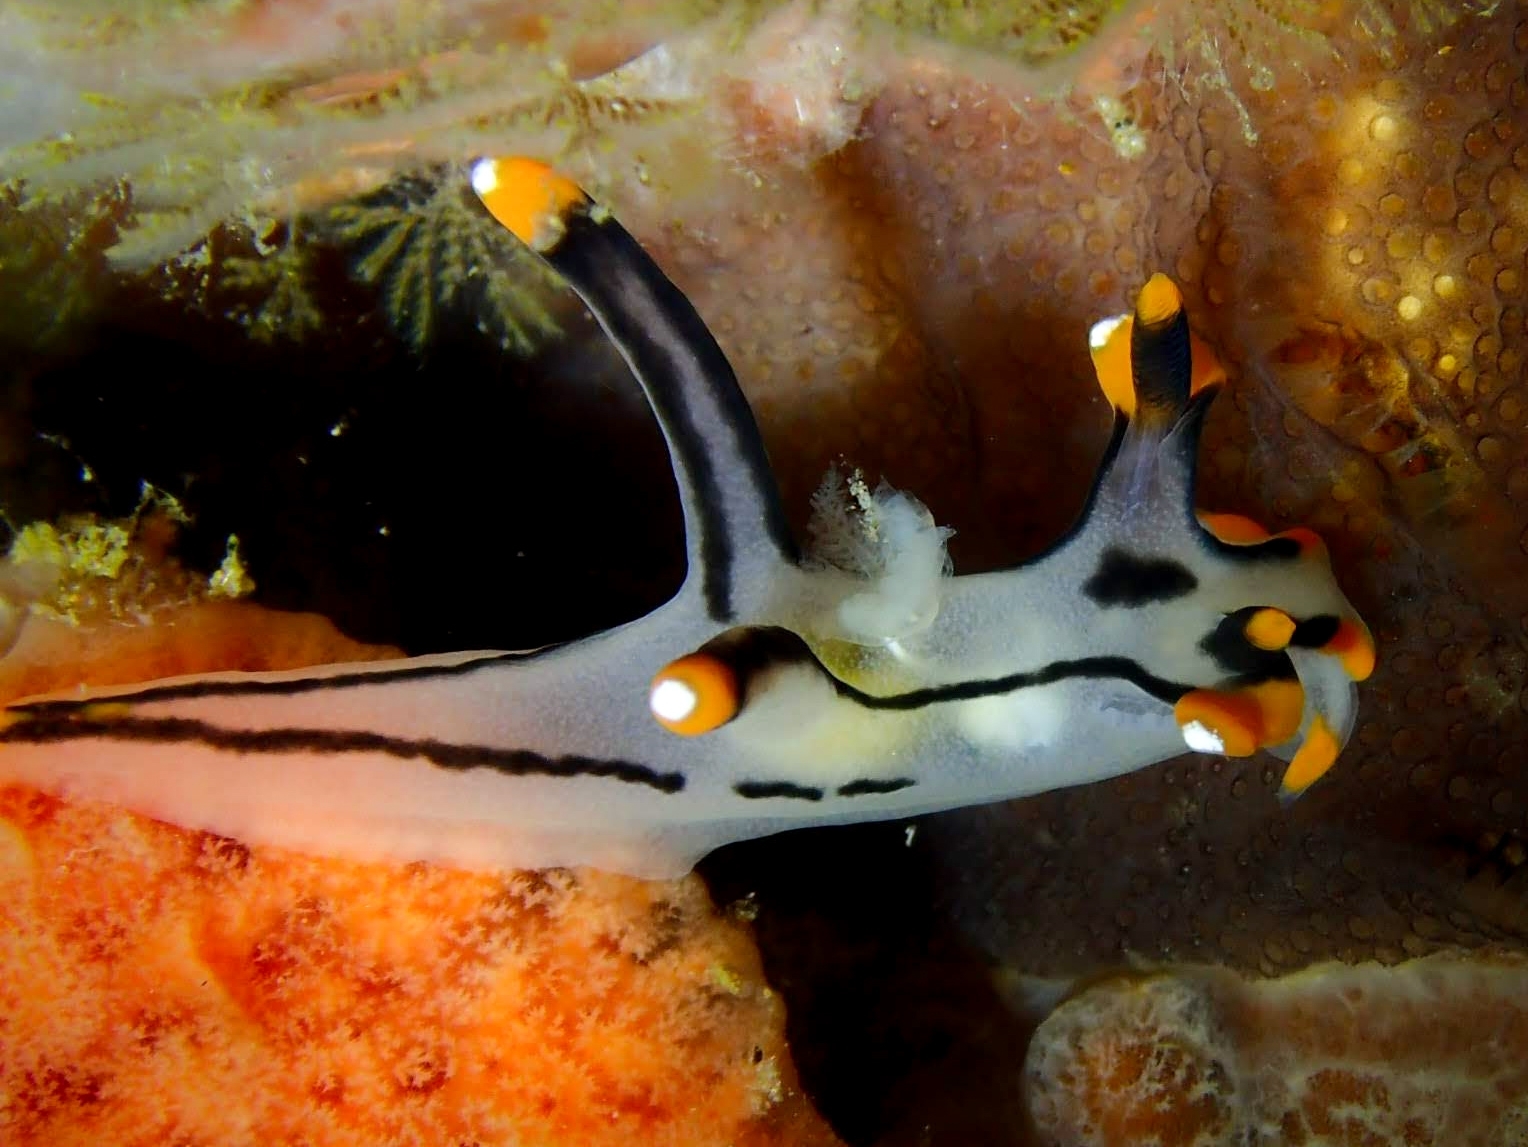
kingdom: Animalia
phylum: Mollusca
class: Gastropoda
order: Nudibranchia
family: Polyceridae
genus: Thecacera
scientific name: Thecacera picta
